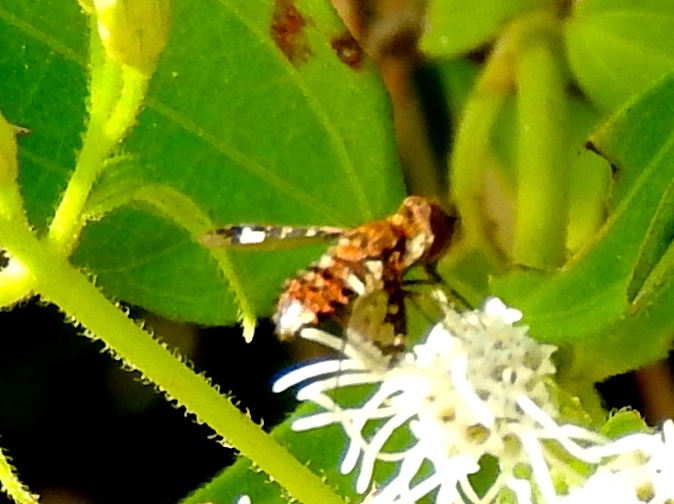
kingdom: Animalia
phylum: Arthropoda
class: Insecta
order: Diptera
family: Bombyliidae
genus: Lepidanthrax
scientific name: Lepidanthrax
